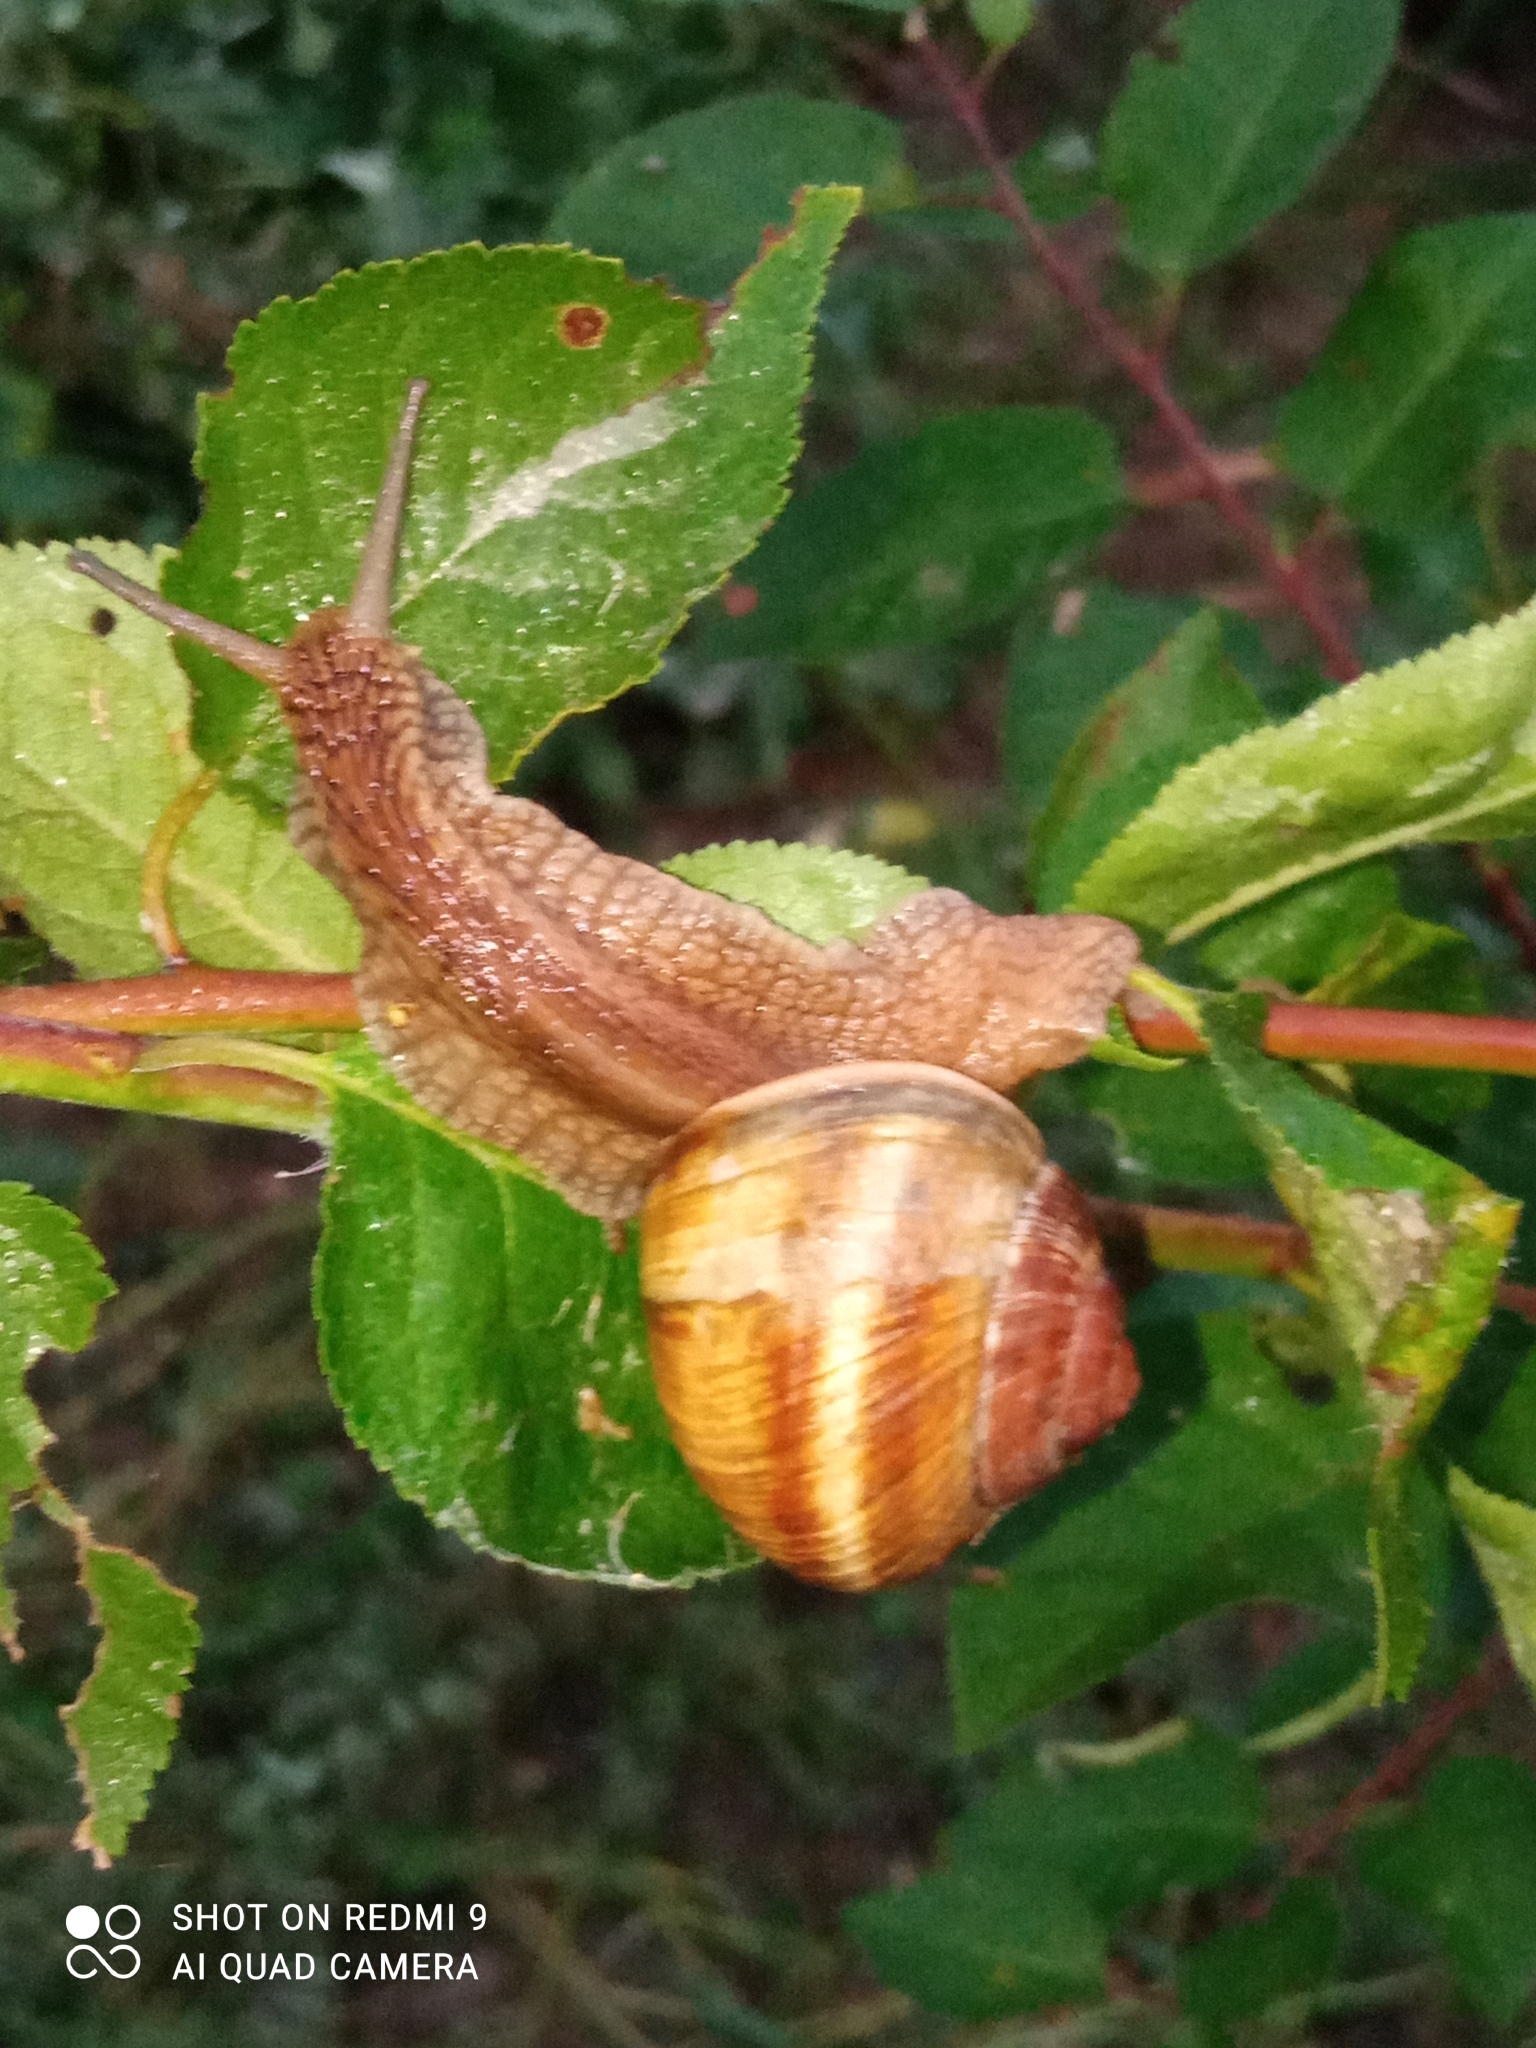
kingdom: Animalia
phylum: Mollusca
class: Gastropoda
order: Stylommatophora
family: Helicidae
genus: Helix
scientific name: Helix lucorum
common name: Turkish snail
